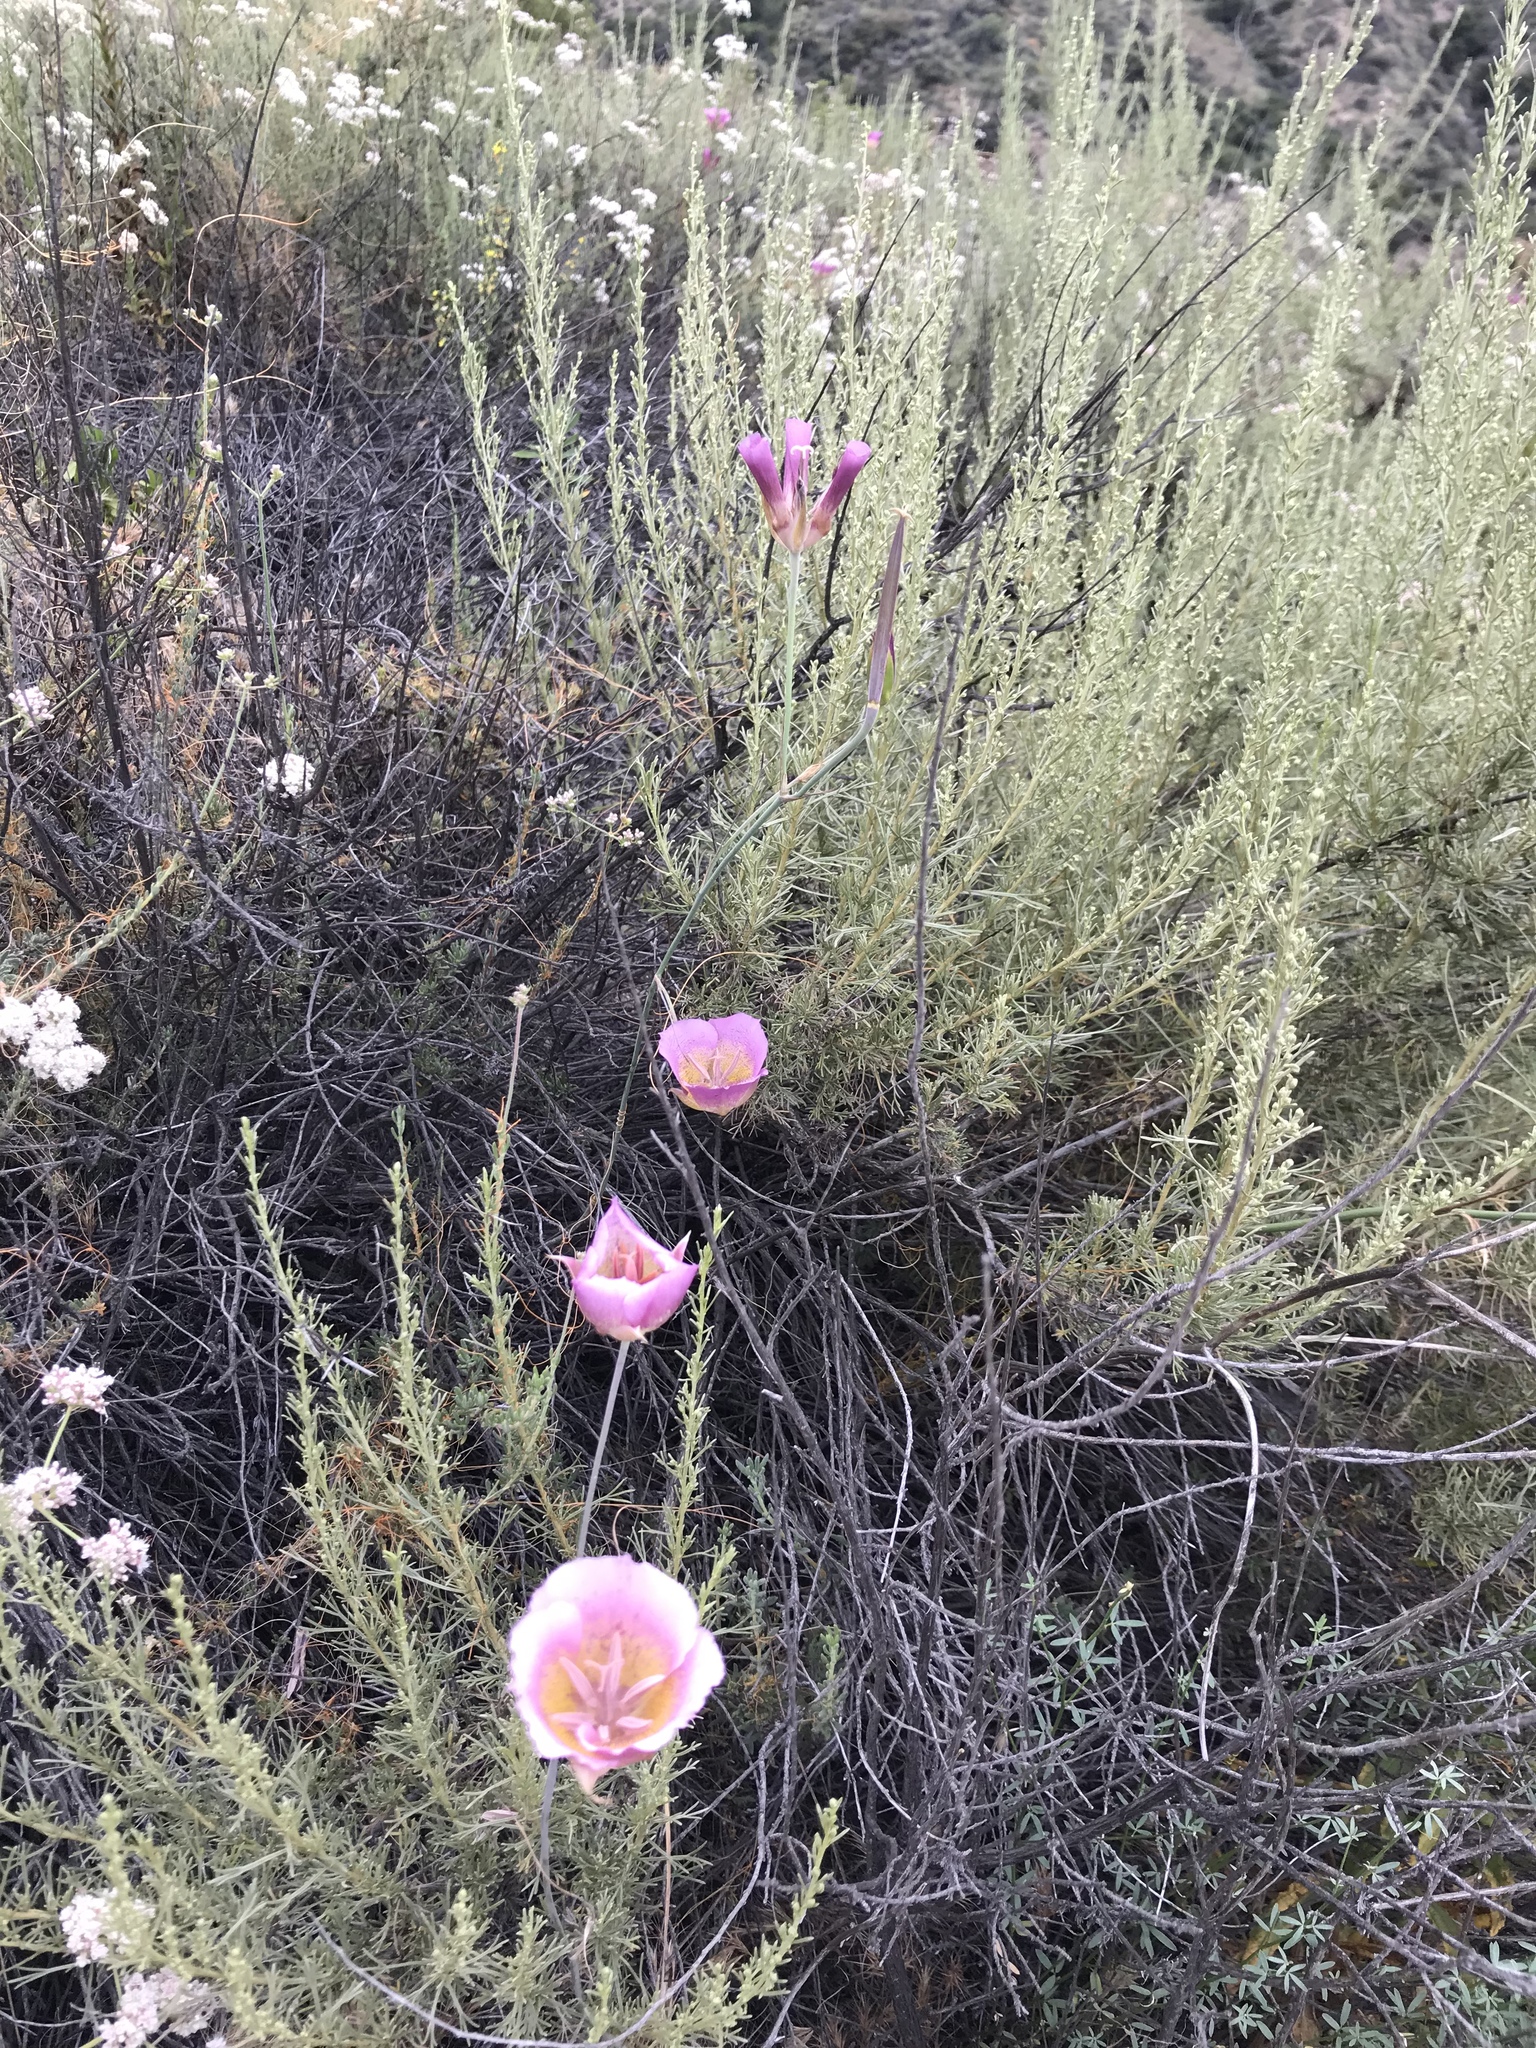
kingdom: Plantae
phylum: Tracheophyta
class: Liliopsida
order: Liliales
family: Liliaceae
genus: Calochortus
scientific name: Calochortus plummerae
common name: Plummer's mariposa-lily
